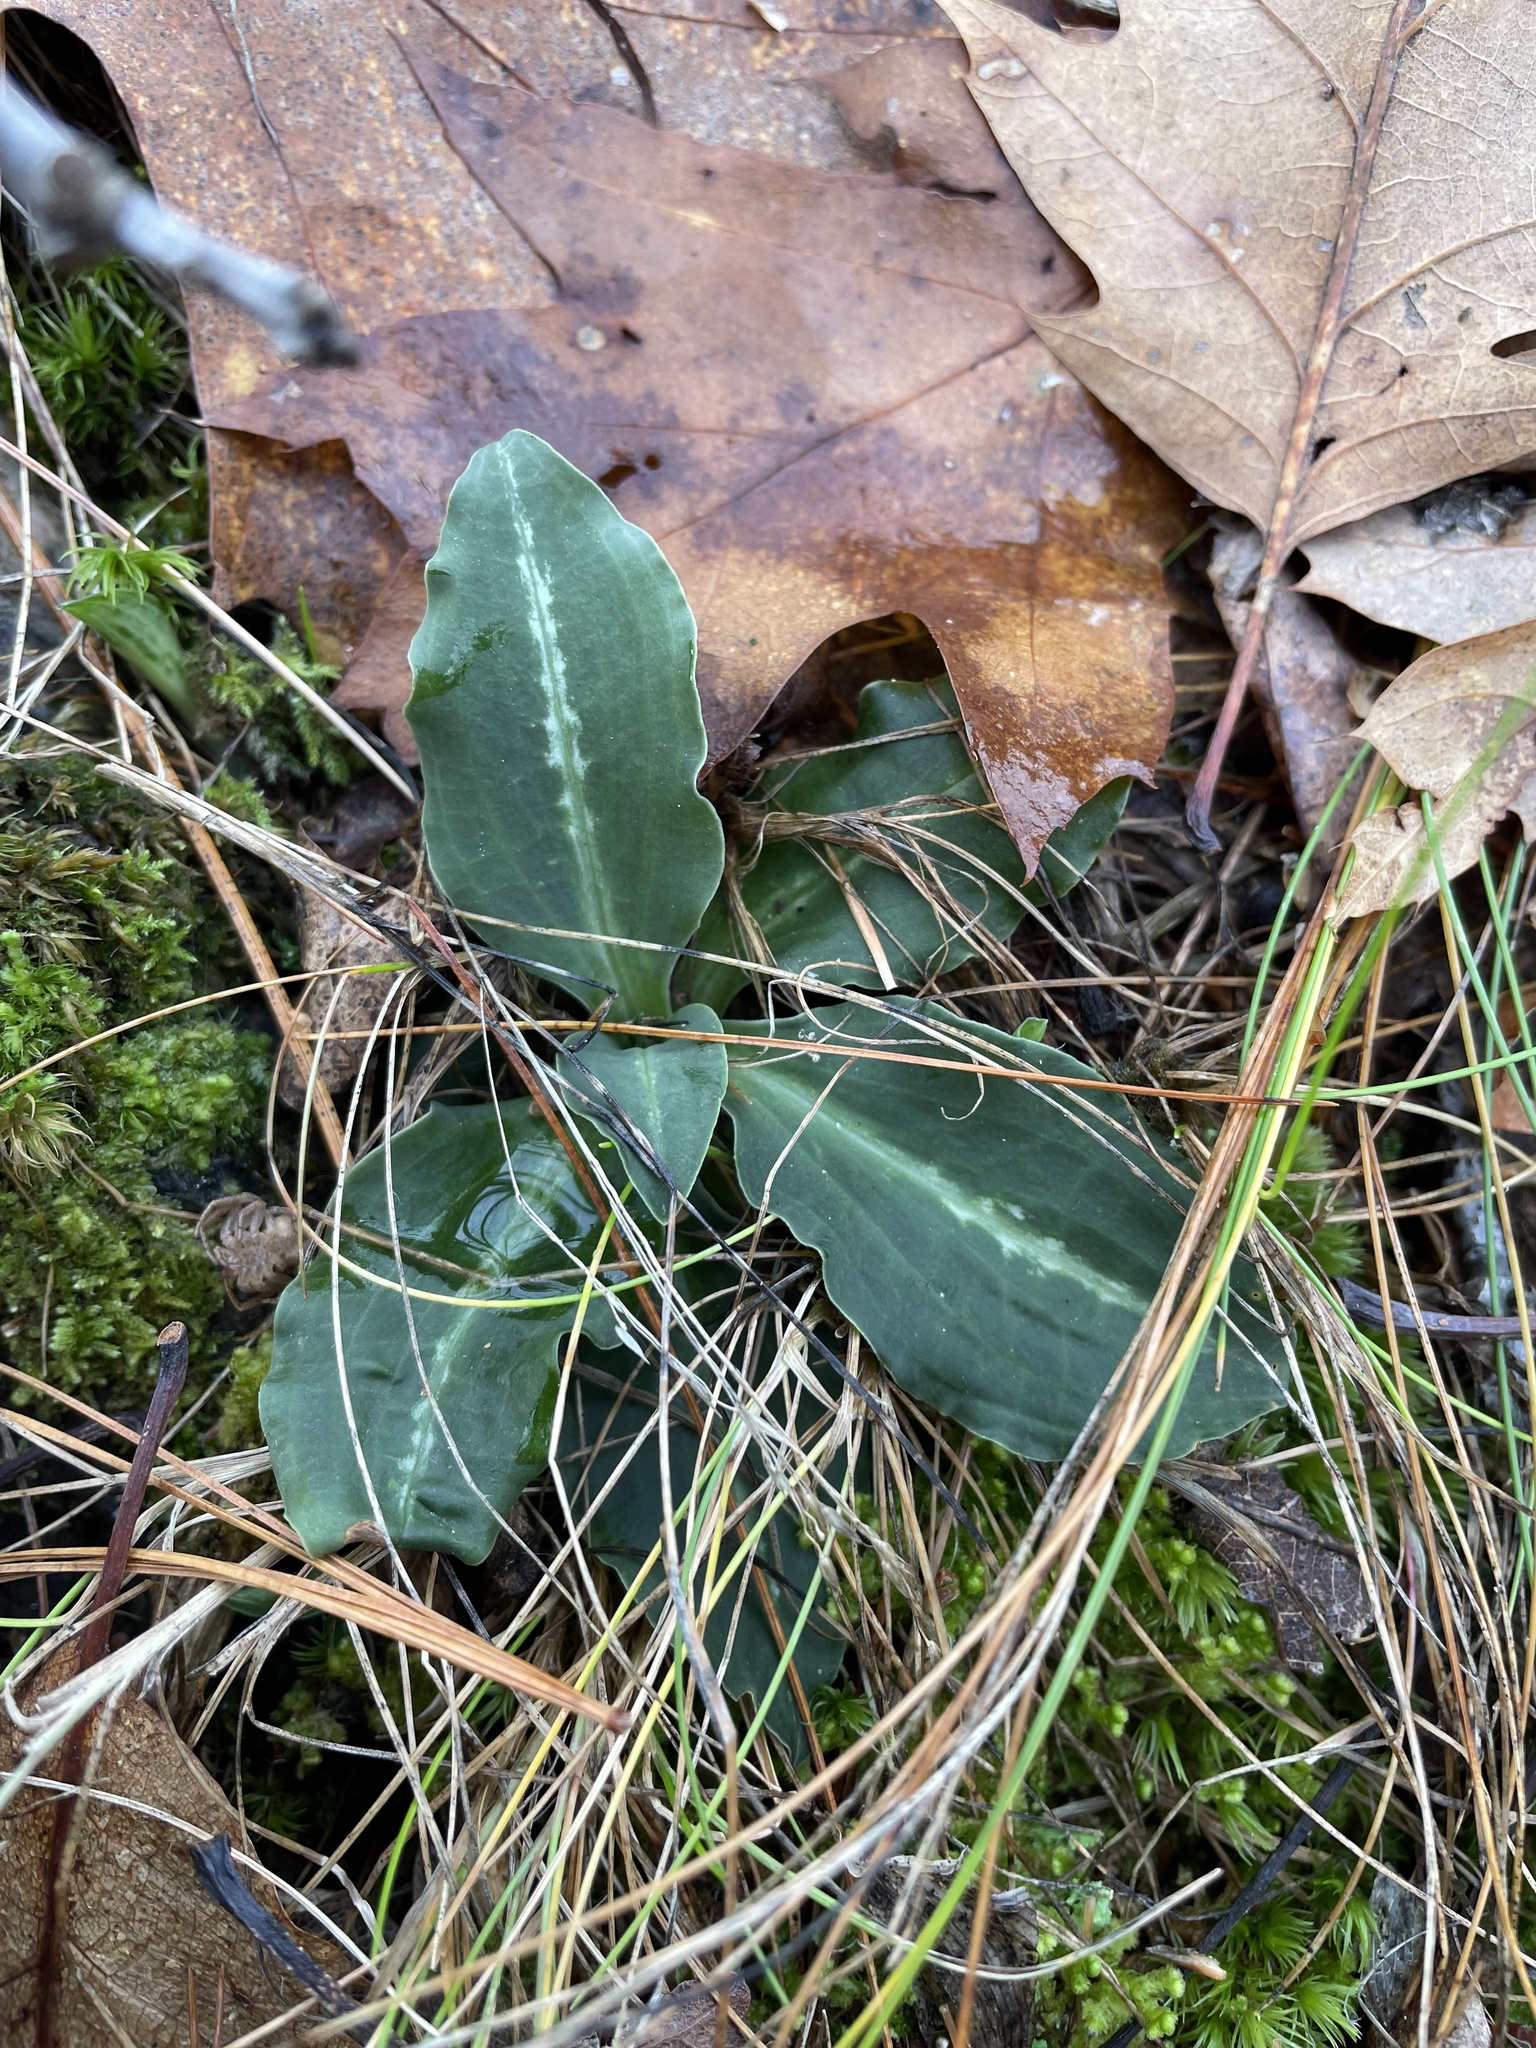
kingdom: Plantae
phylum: Tracheophyta
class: Liliopsida
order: Asparagales
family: Orchidaceae
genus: Goodyera
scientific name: Goodyera oblongifolia
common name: Giant rattlesnake-plantain
